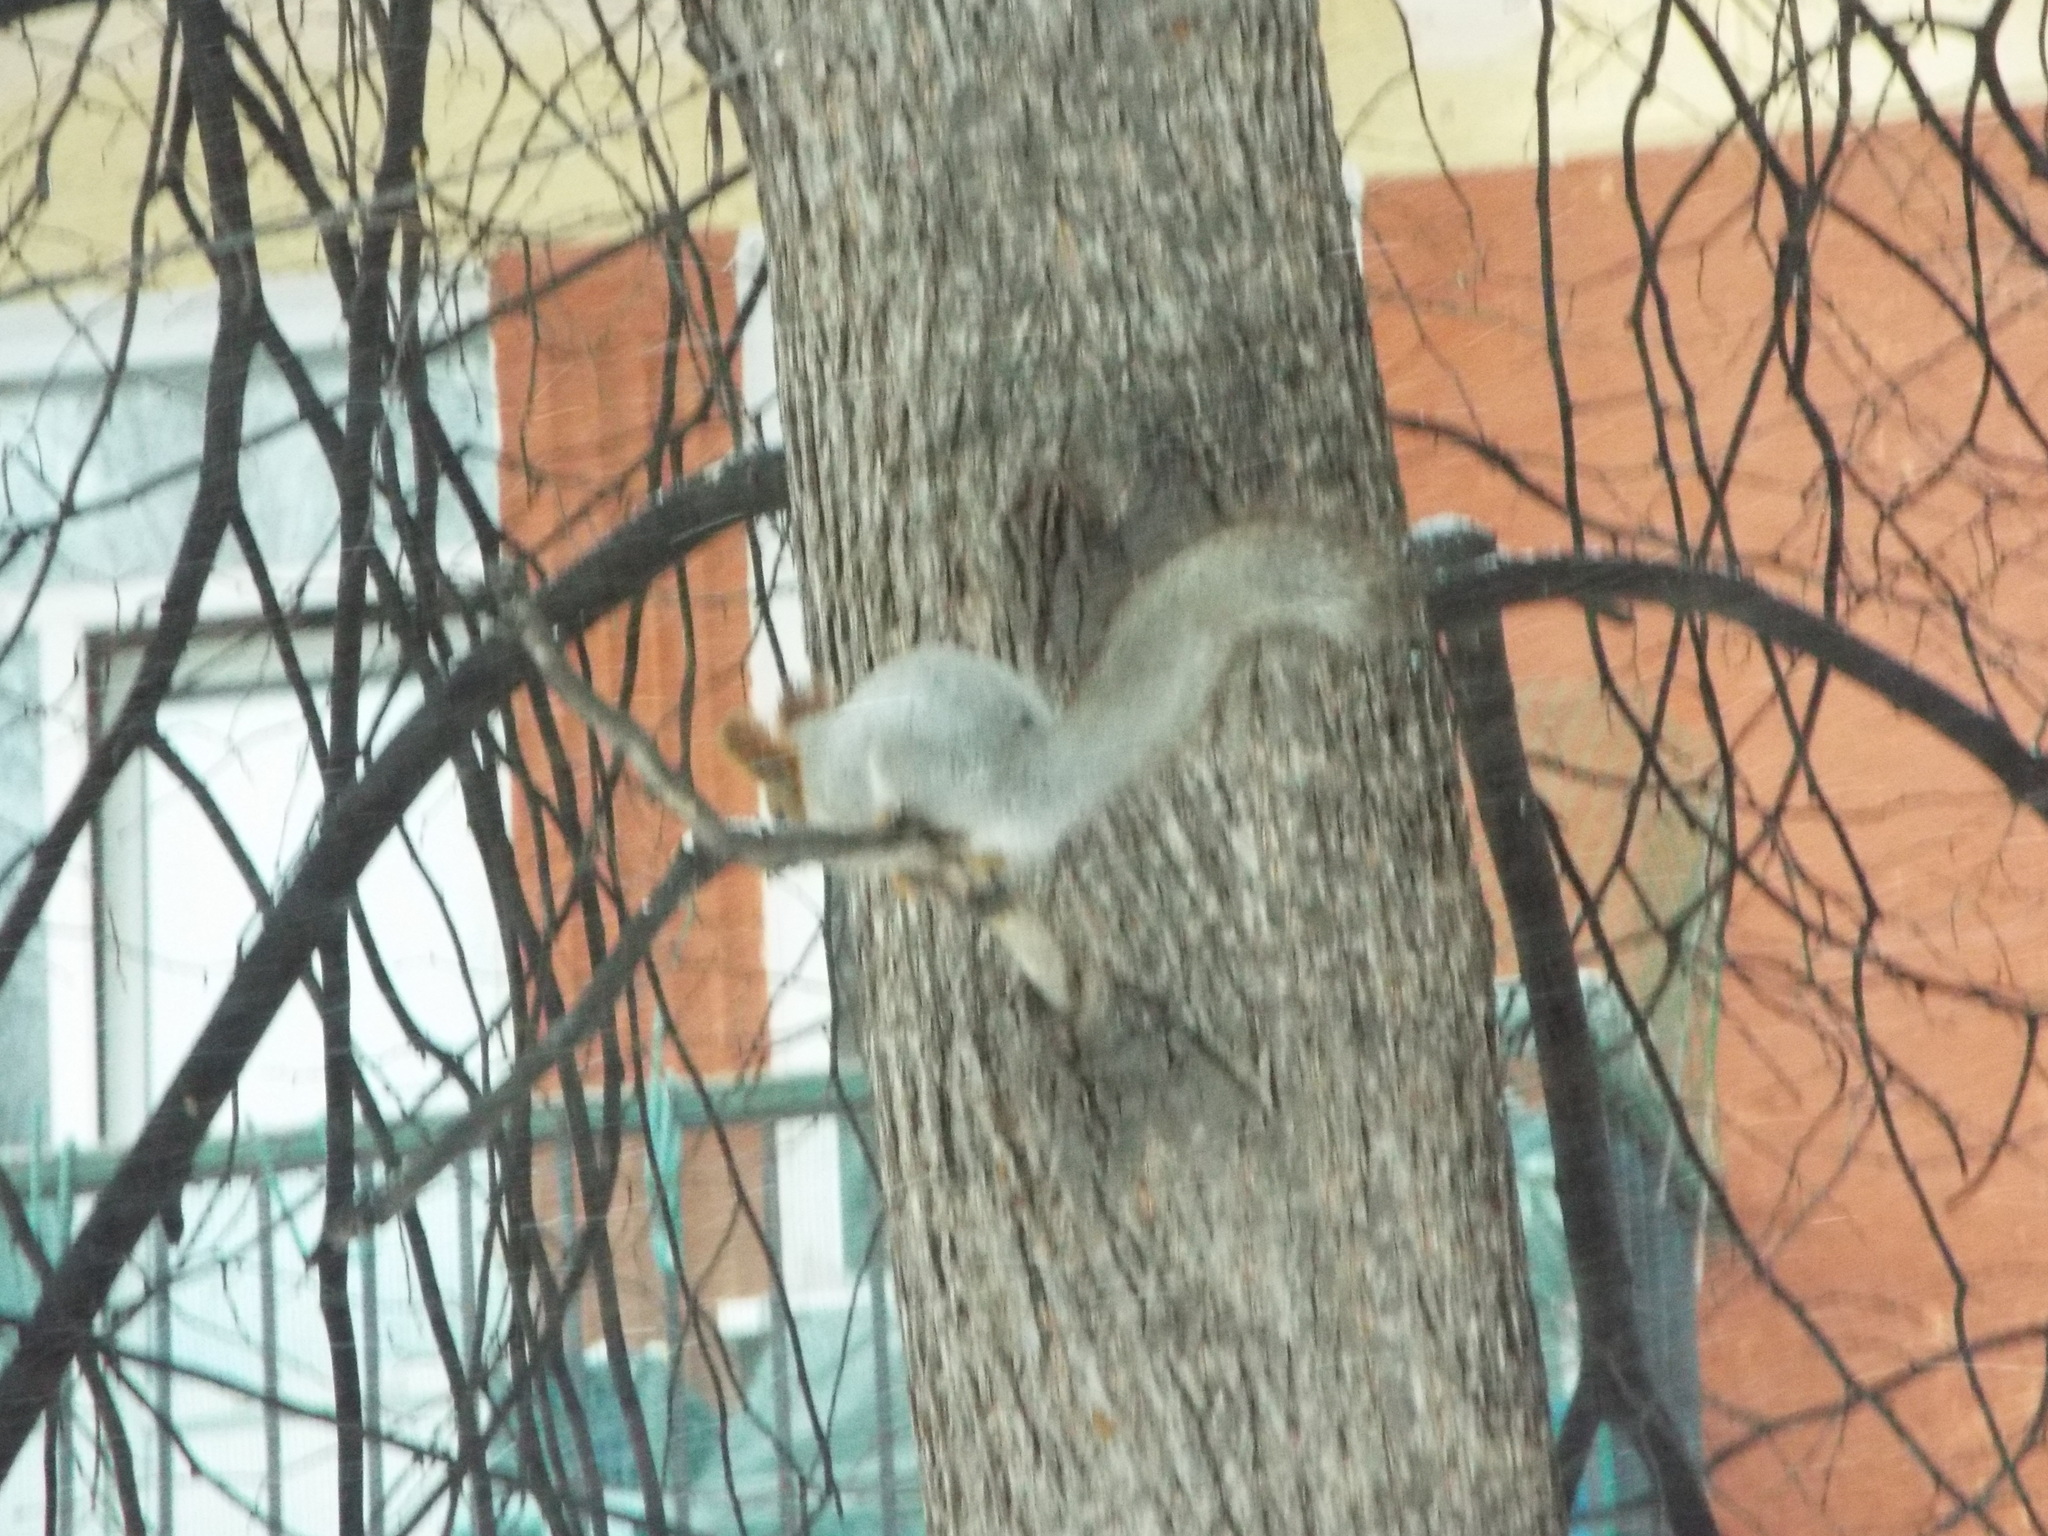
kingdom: Animalia
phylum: Chordata
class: Mammalia
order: Rodentia
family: Sciuridae
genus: Sciurus
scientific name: Sciurus vulgaris
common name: Eurasian red squirrel
